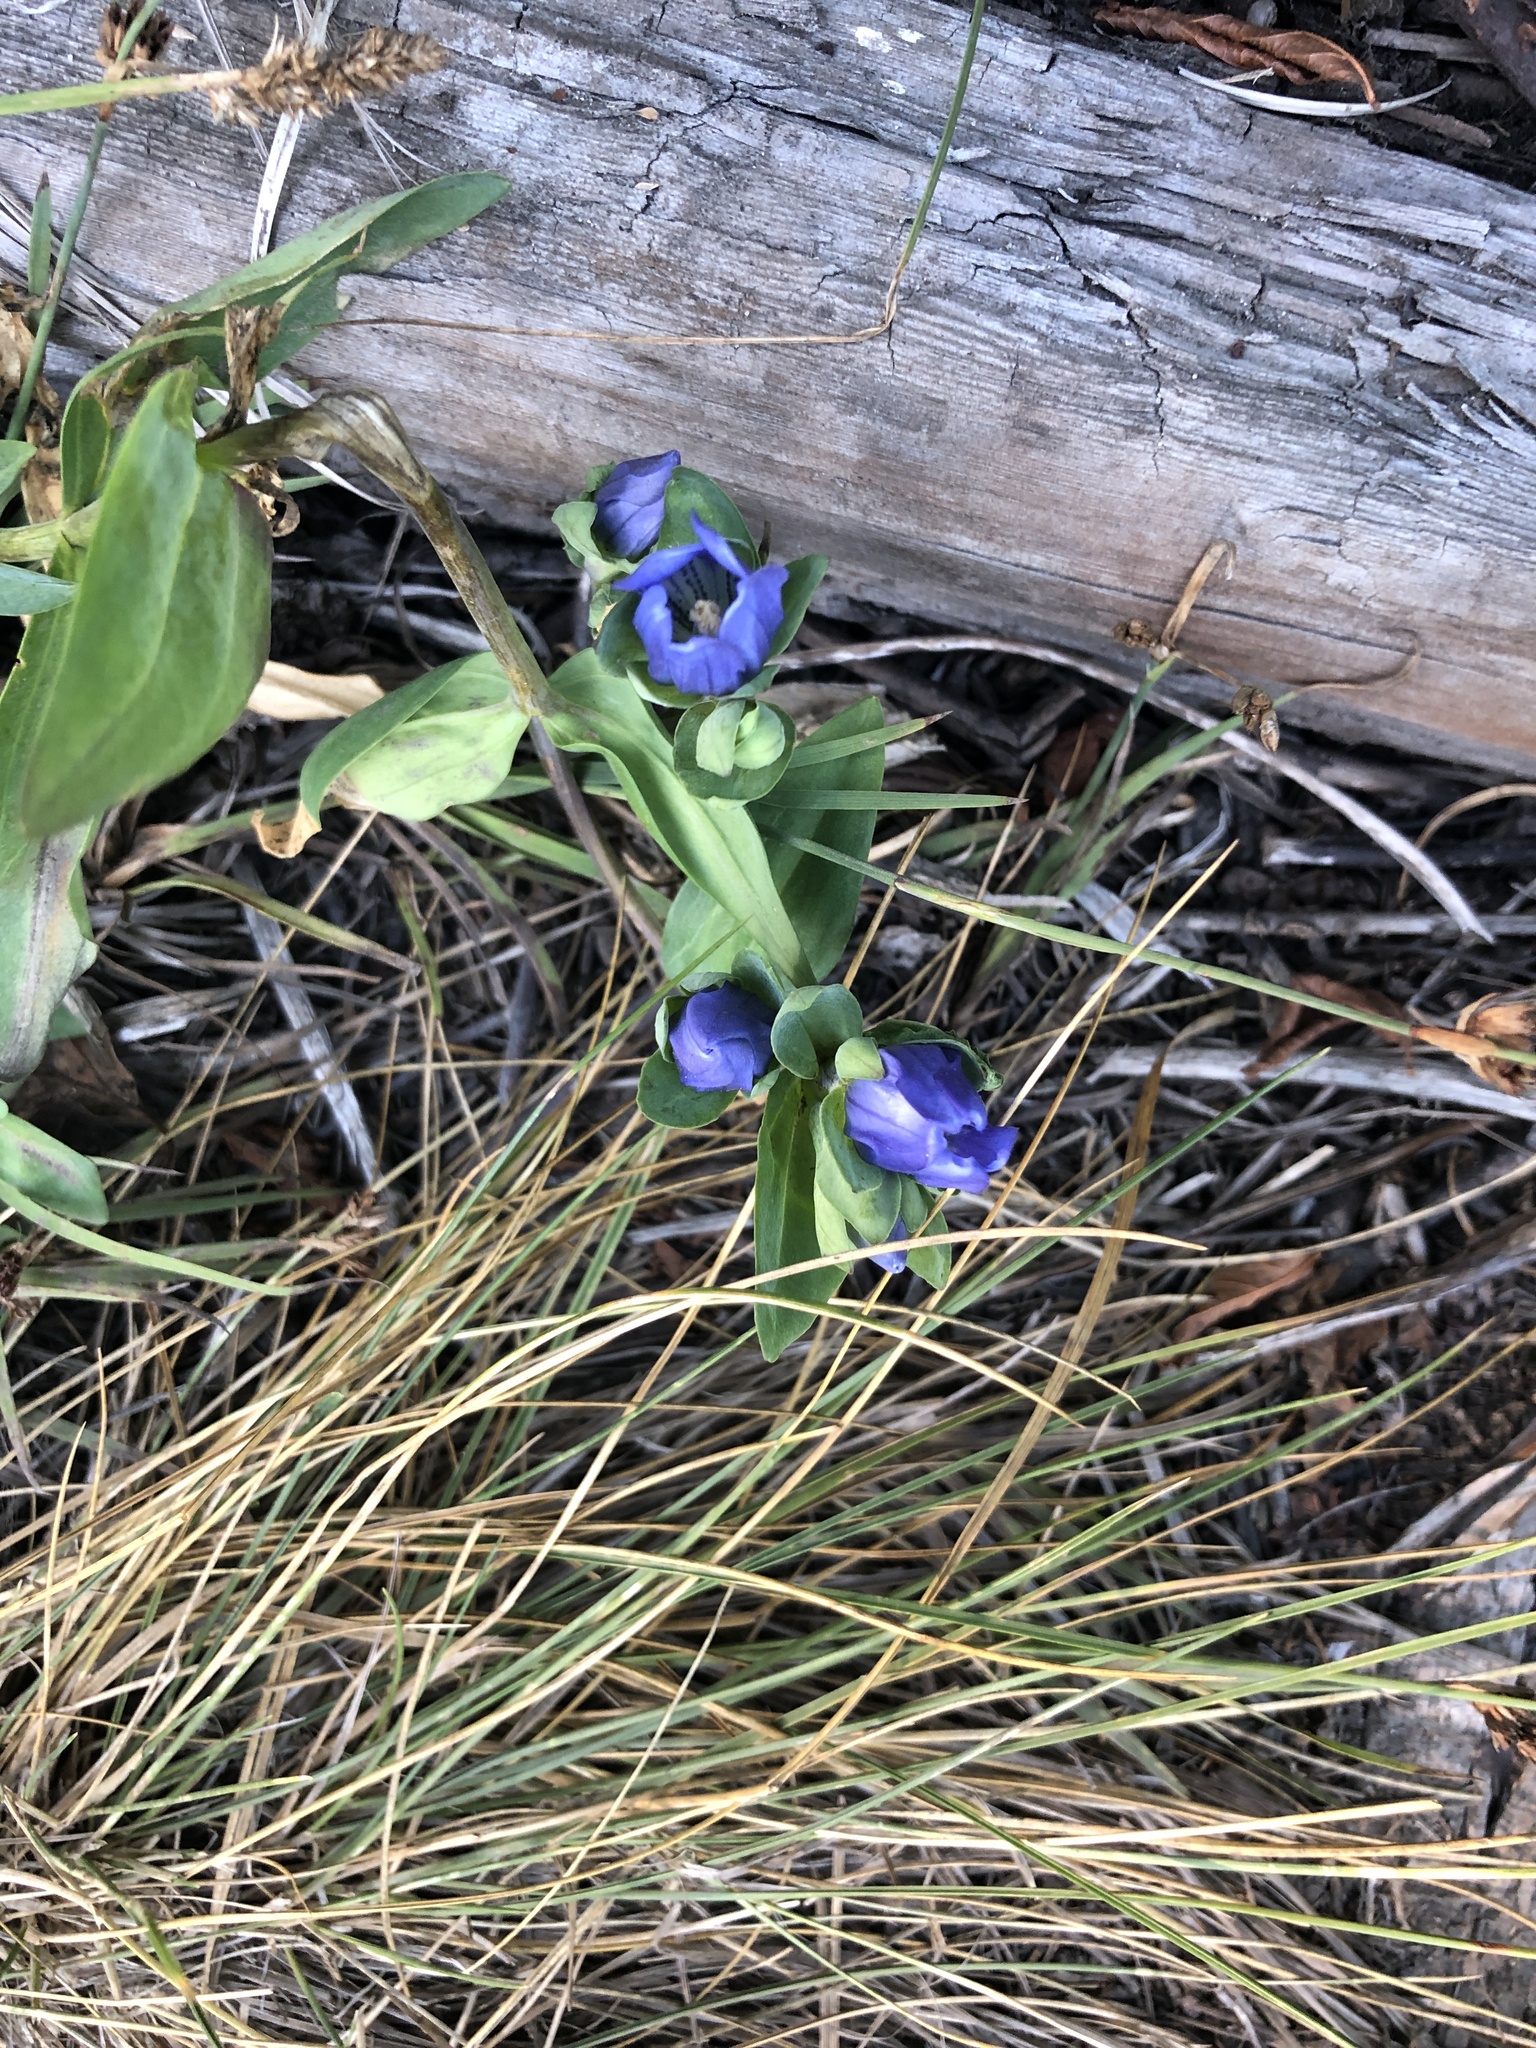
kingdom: Plantae
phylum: Tracheophyta
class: Magnoliopsida
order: Gentianales
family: Gentianaceae
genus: Gentiana
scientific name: Gentiana sceptrum
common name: Pacific gentian
